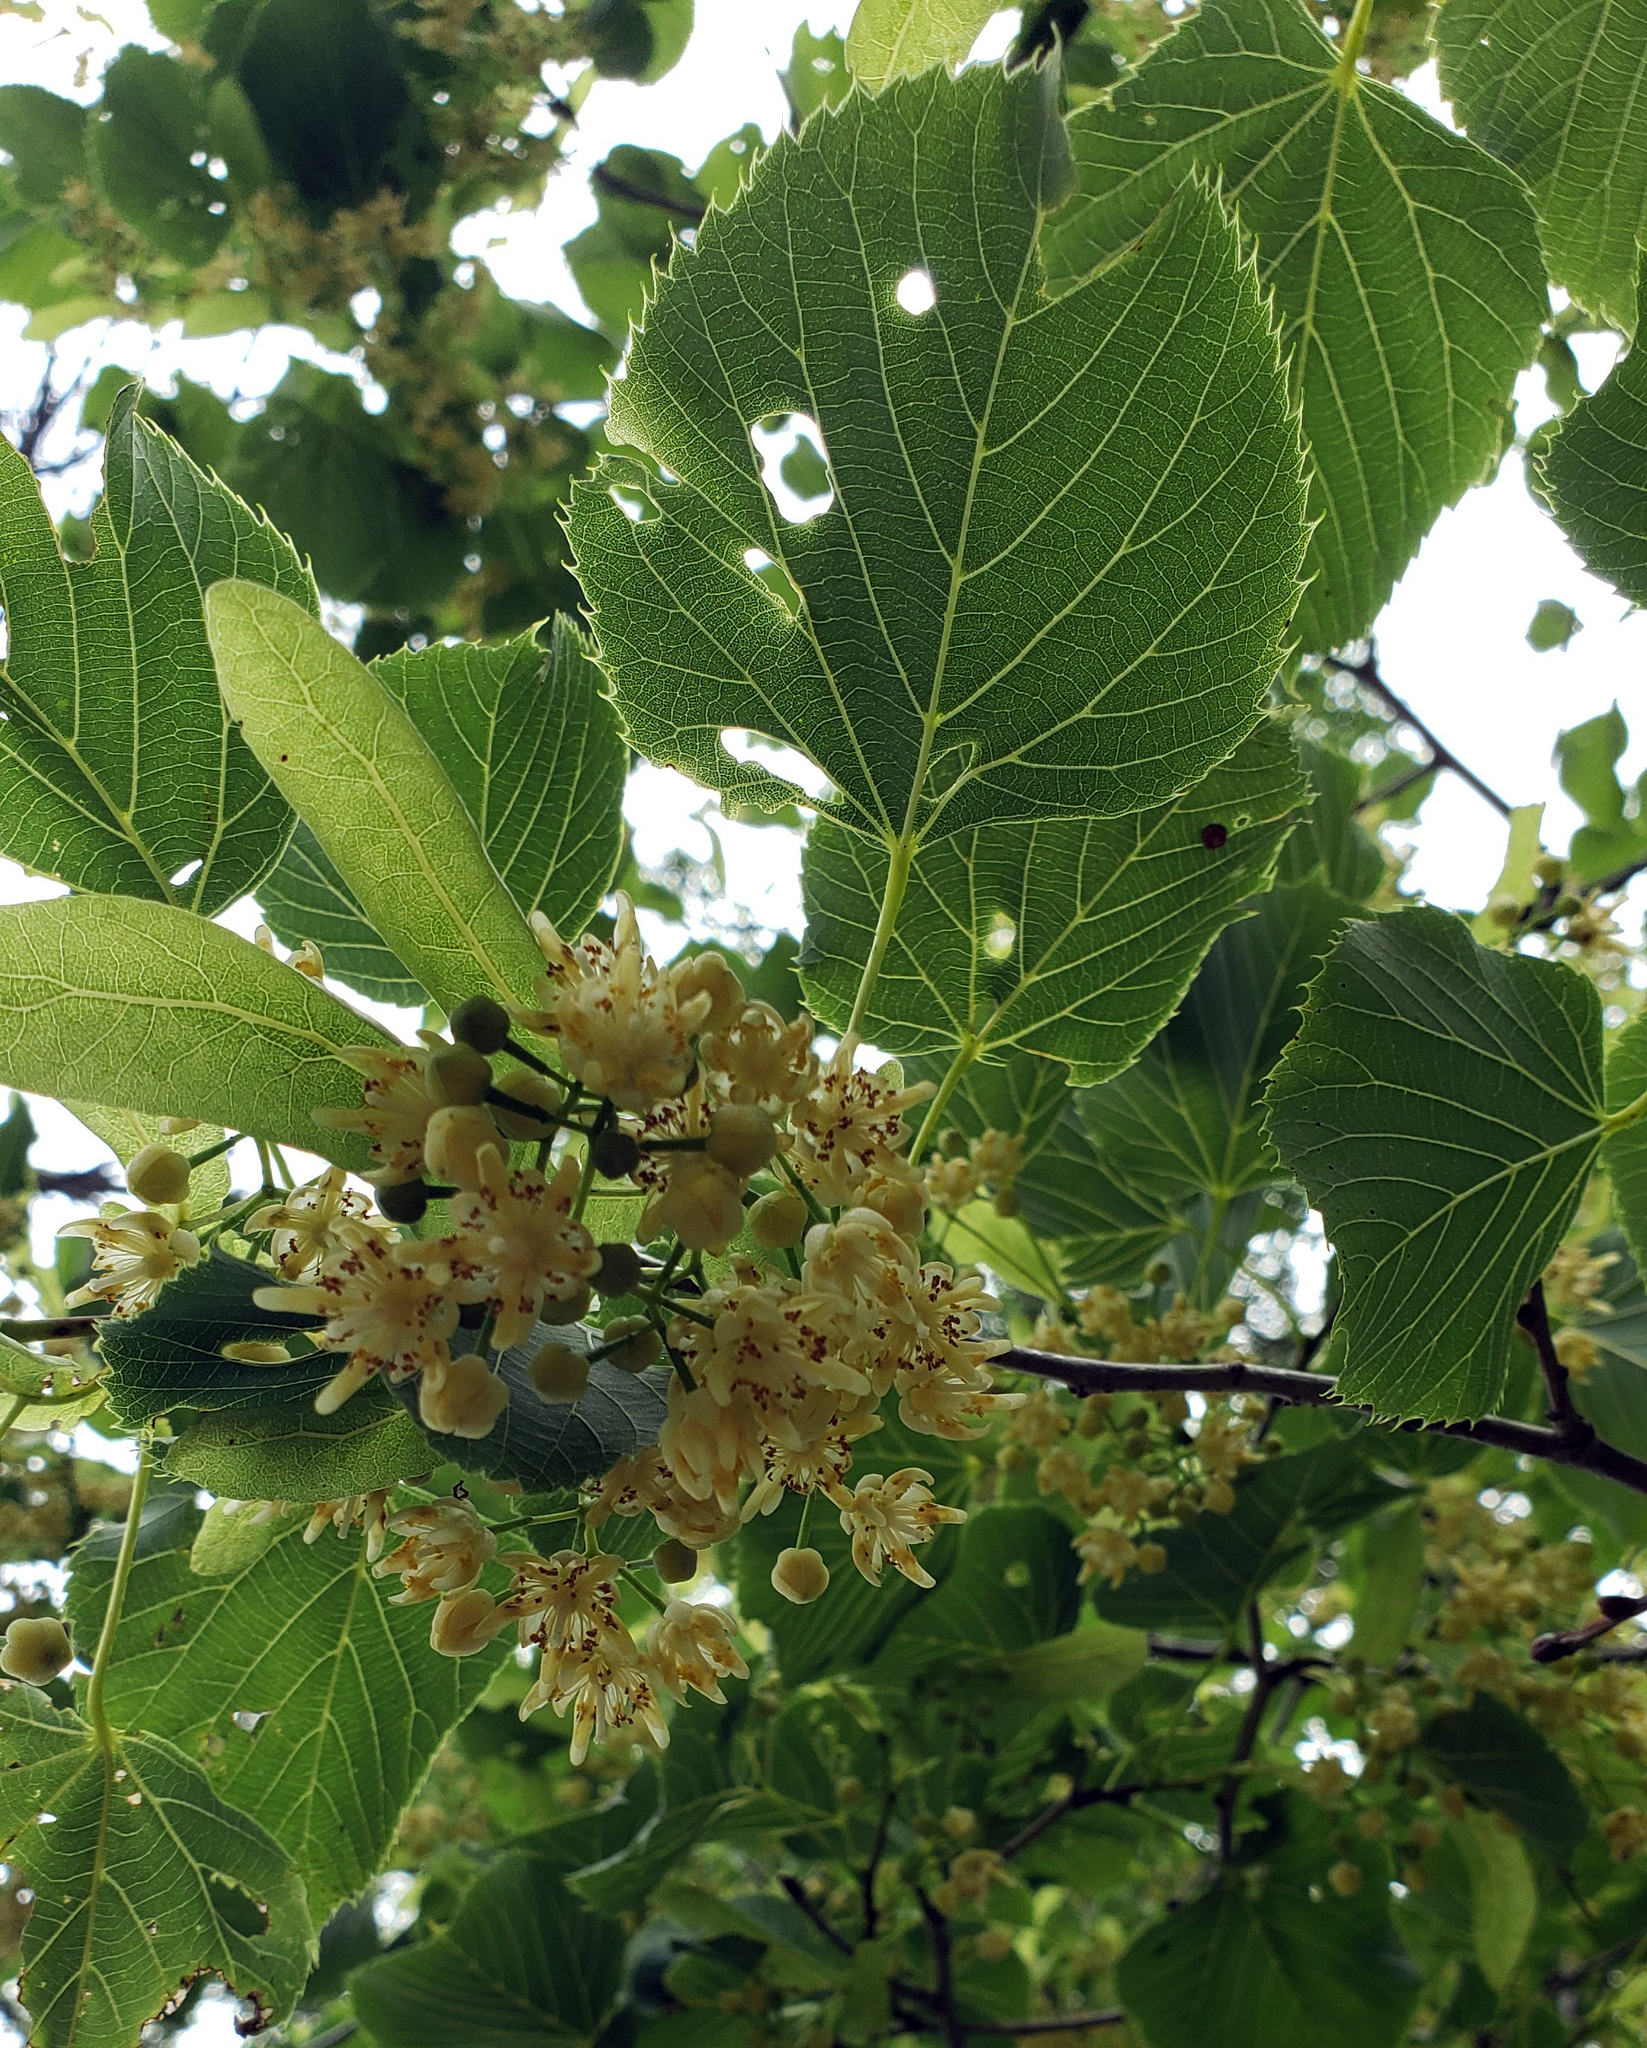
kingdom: Plantae
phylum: Tracheophyta
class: Magnoliopsida
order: Malvales
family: Malvaceae
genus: Tilia
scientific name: Tilia americana
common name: Basswood
